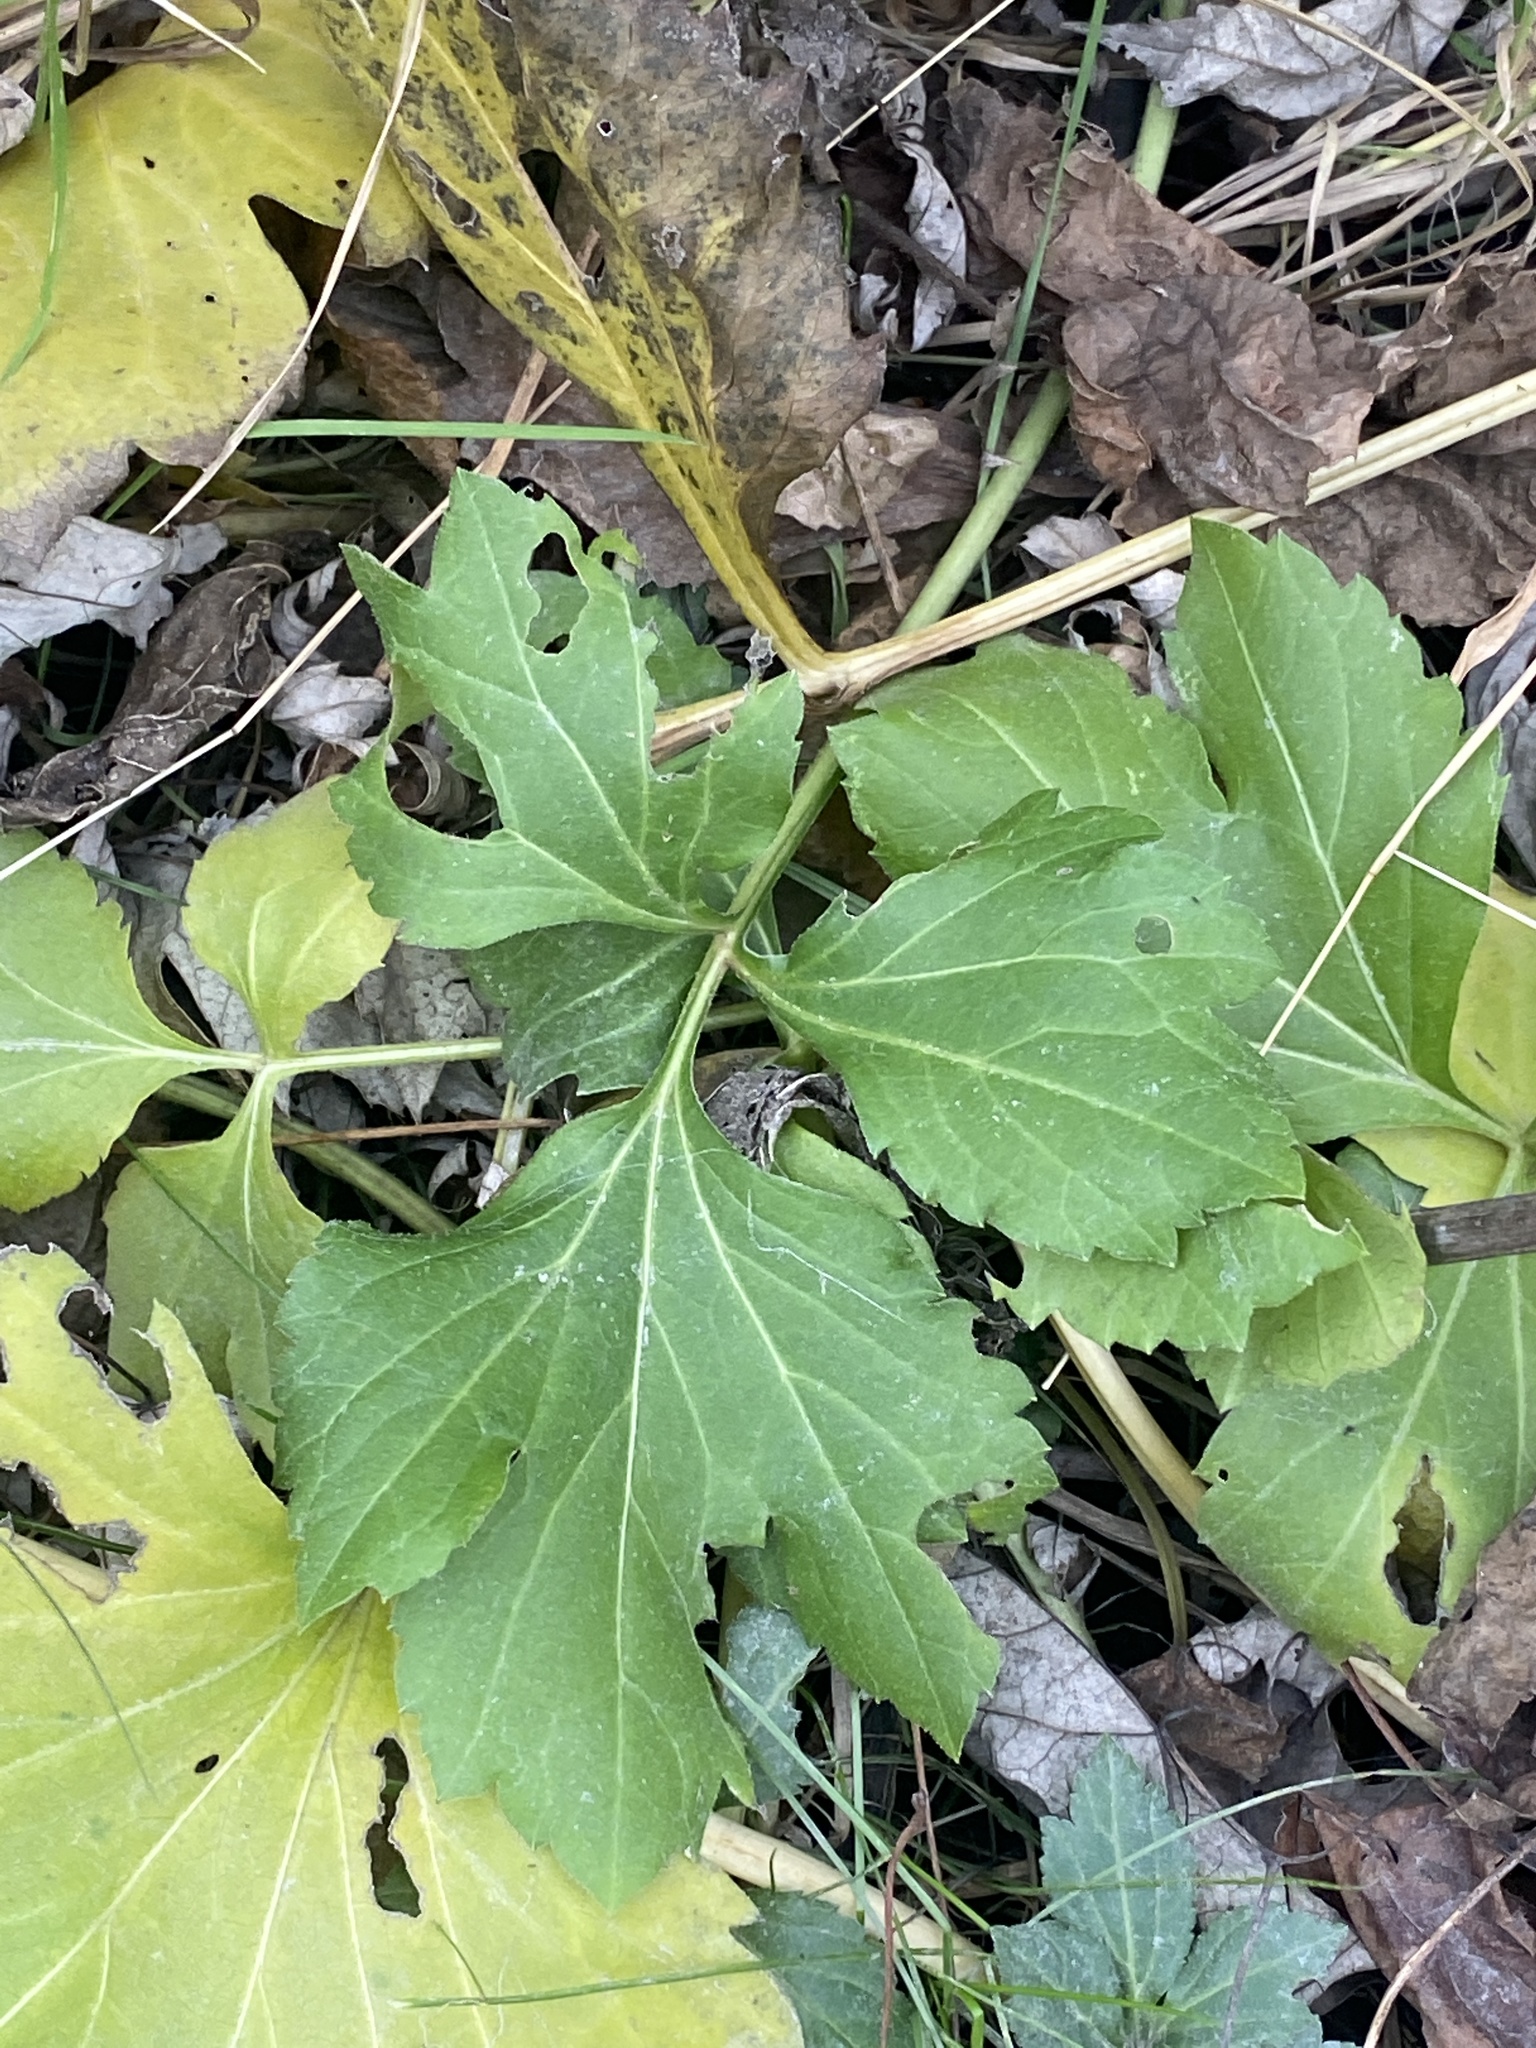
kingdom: Plantae
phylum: Tracheophyta
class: Magnoliopsida
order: Asterales
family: Asteraceae
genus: Rudbeckia
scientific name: Rudbeckia laciniata
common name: Coneflower
